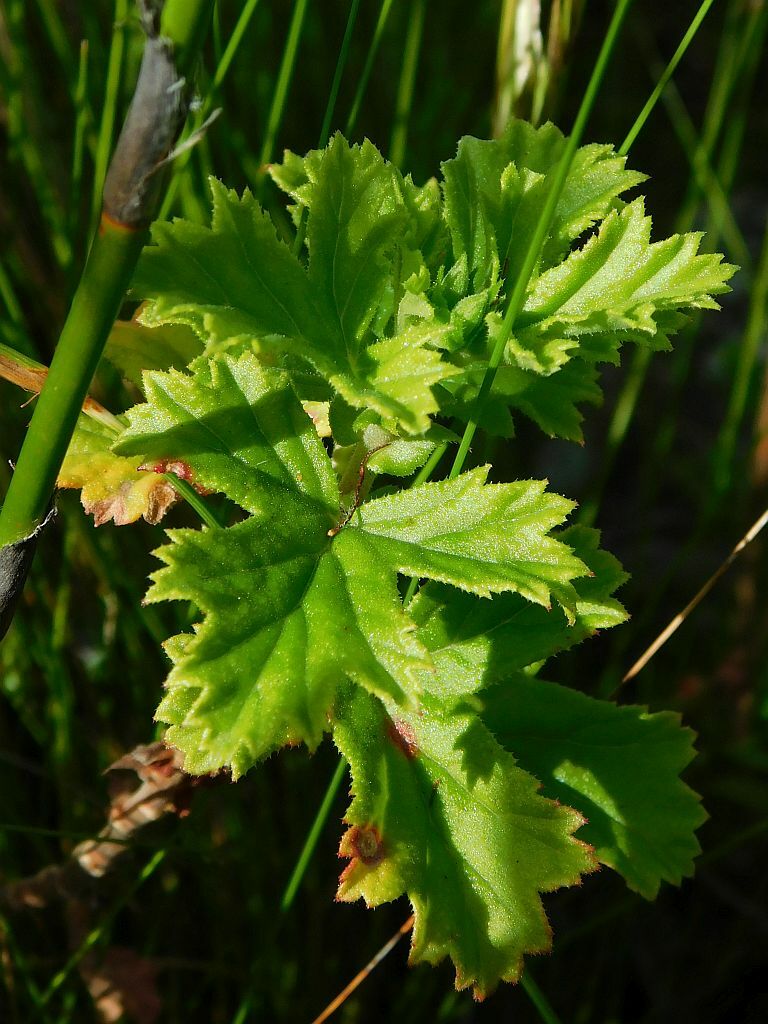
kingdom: Plantae
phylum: Tracheophyta
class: Magnoliopsida
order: Geraniales
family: Geraniaceae
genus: Pelargonium
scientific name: Pelargonium crispum
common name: Crisped-leaf pelargonium
